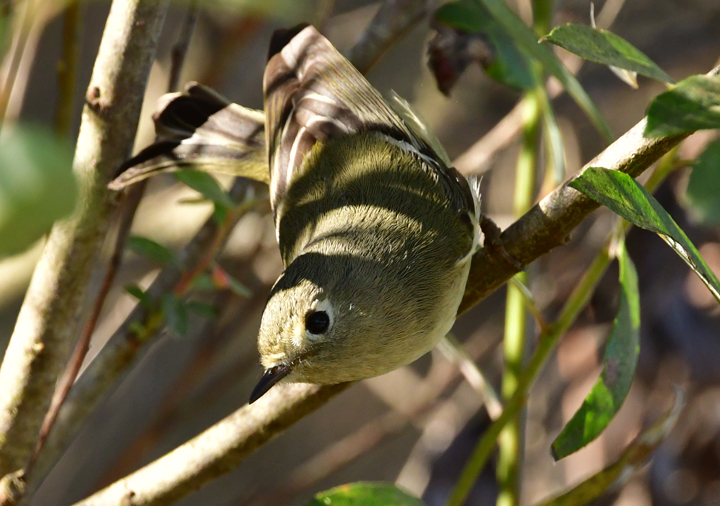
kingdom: Animalia
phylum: Chordata
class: Aves
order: Passeriformes
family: Regulidae
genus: Regulus
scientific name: Regulus calendula
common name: Ruby-crowned kinglet
